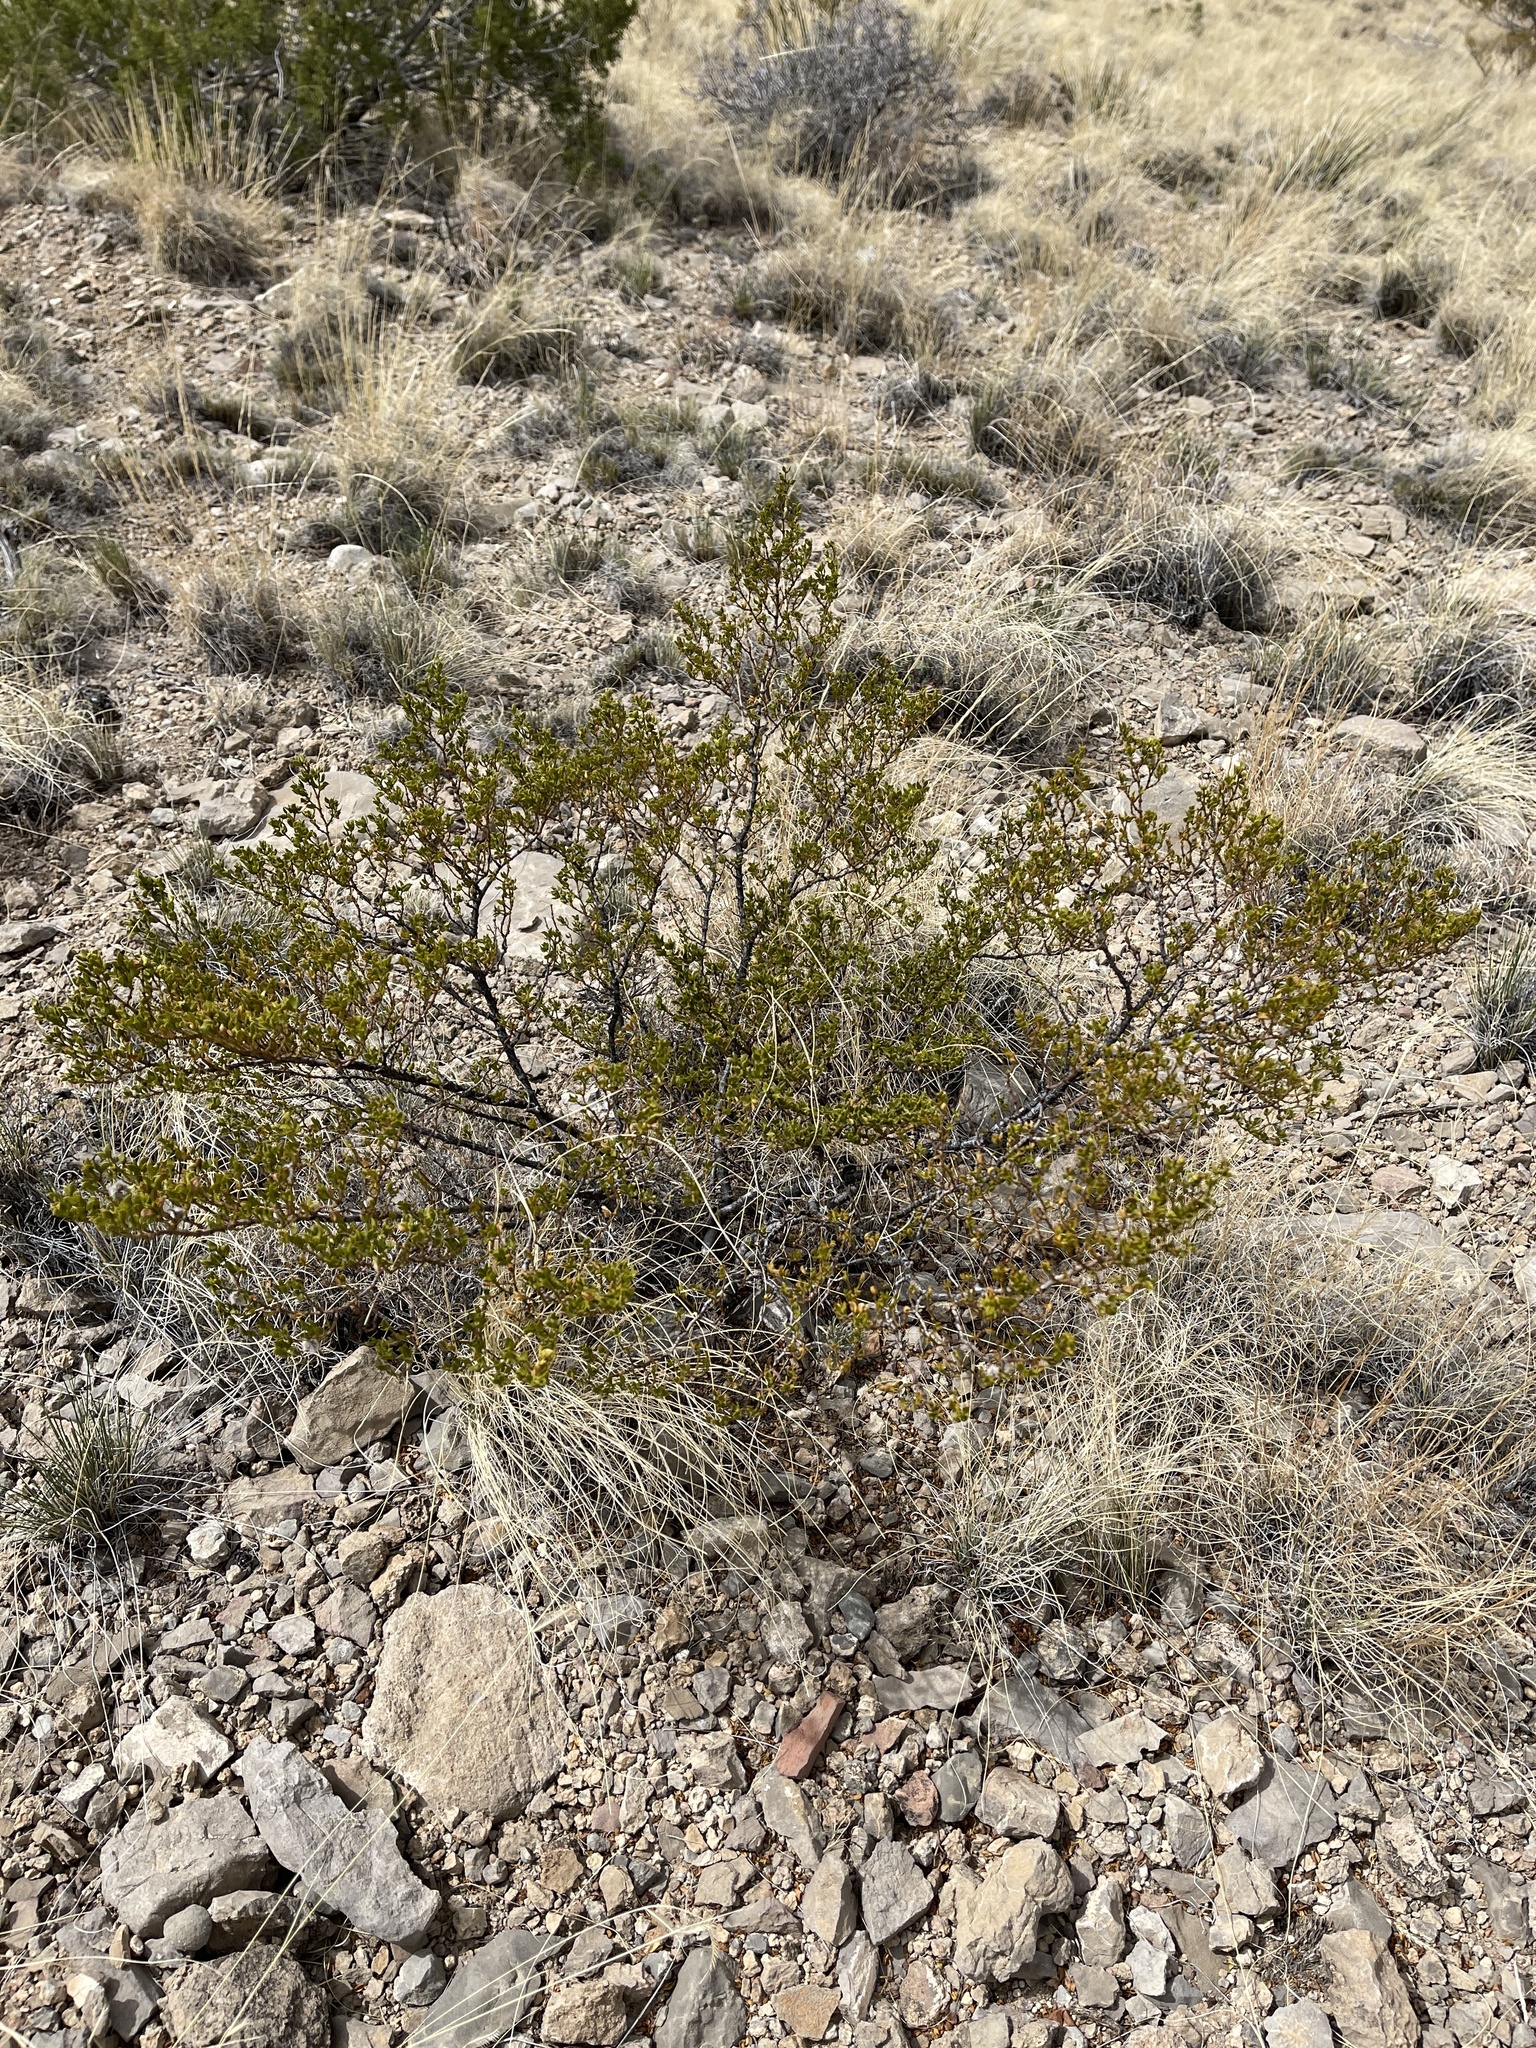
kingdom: Plantae
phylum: Tracheophyta
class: Magnoliopsida
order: Zygophyllales
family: Zygophyllaceae
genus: Larrea
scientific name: Larrea tridentata
